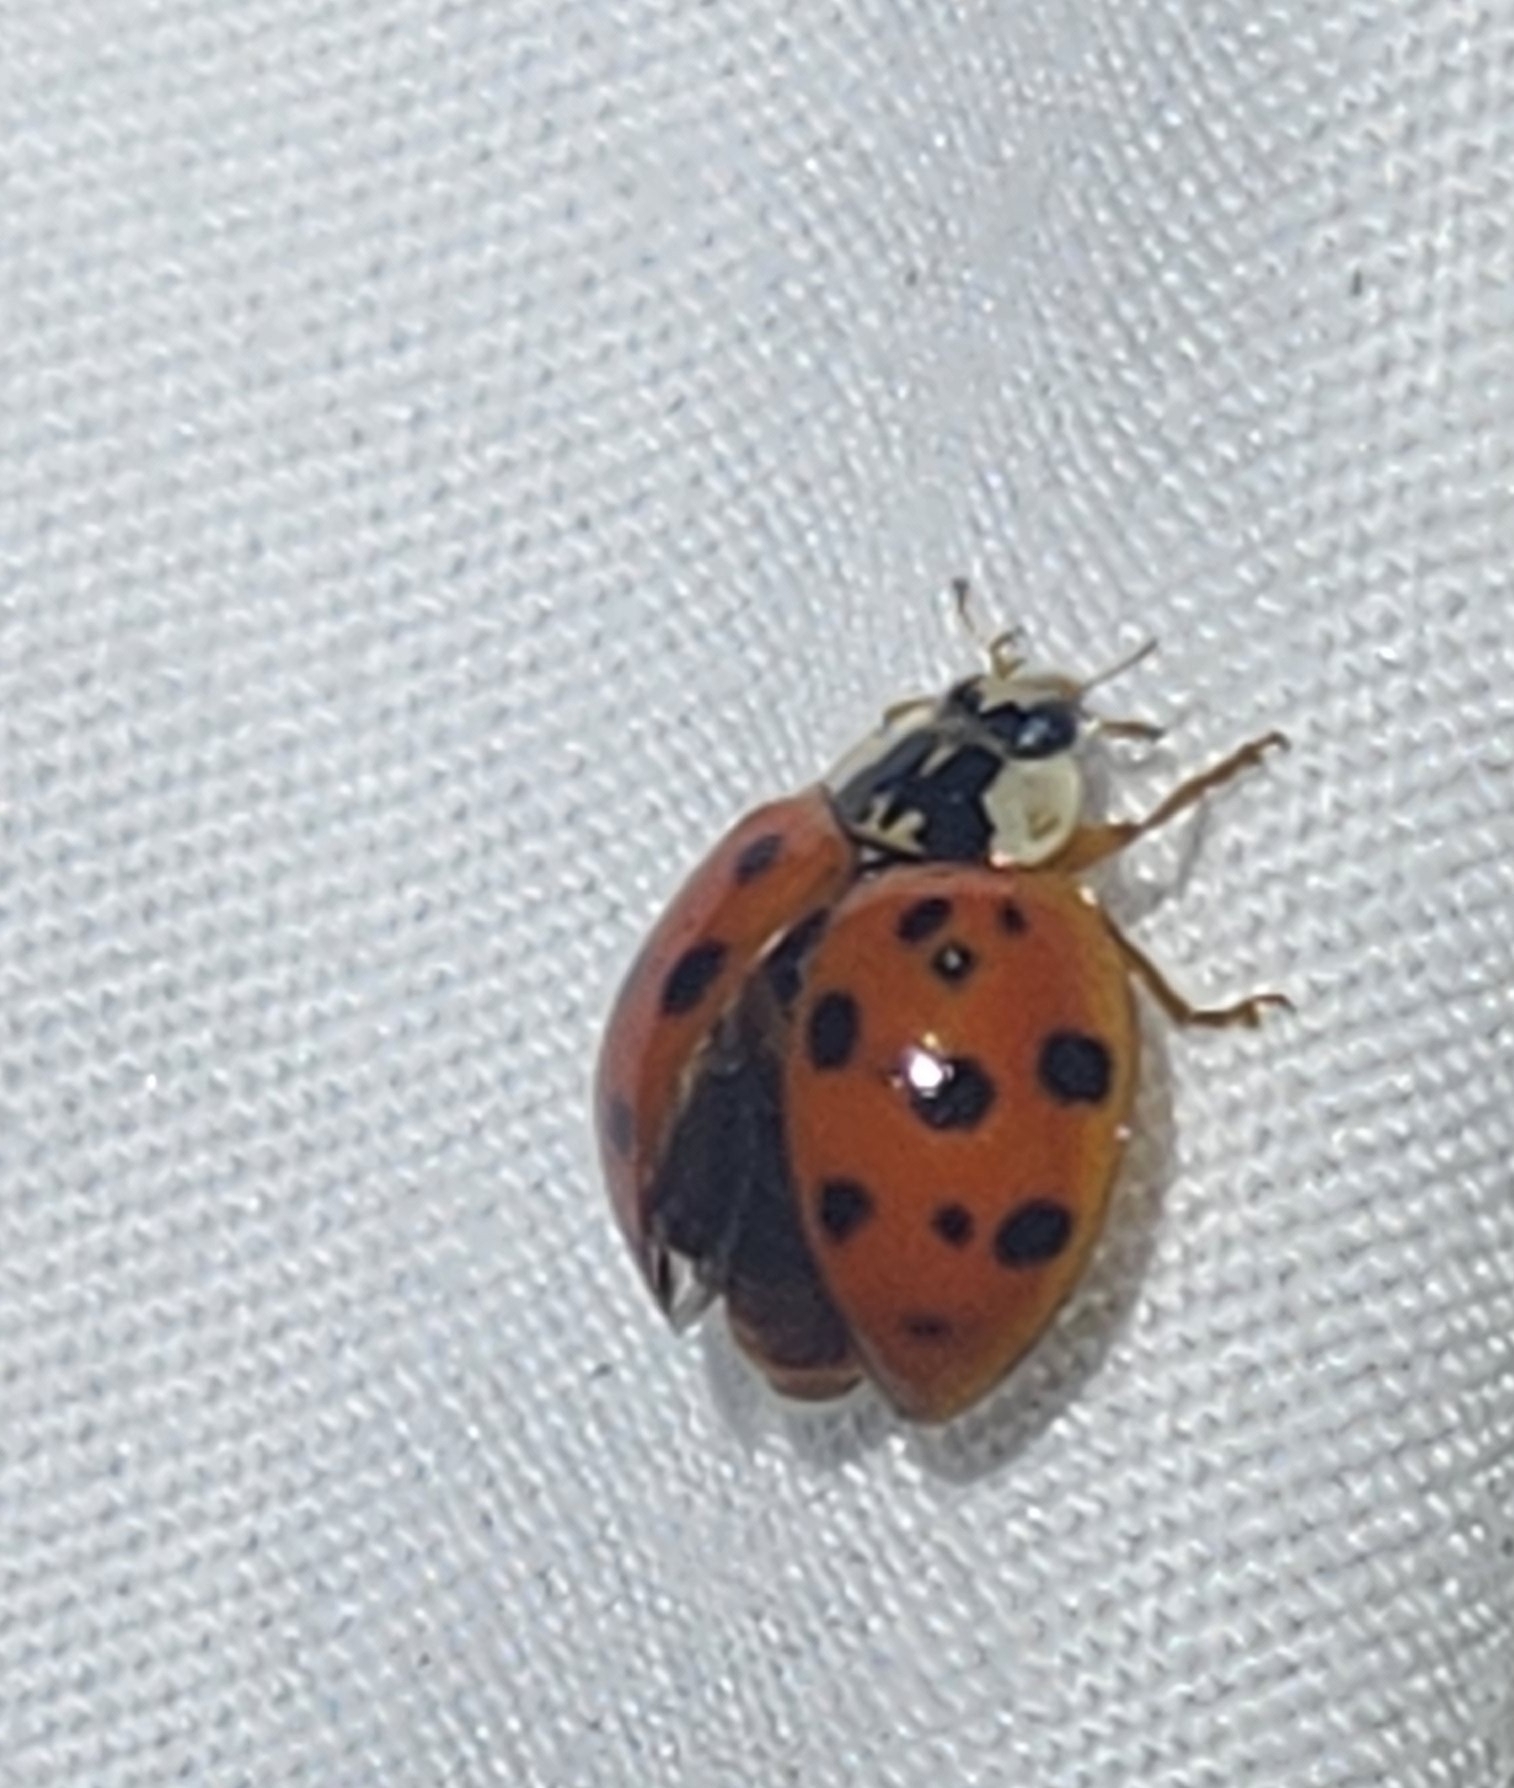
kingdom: Animalia
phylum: Arthropoda
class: Insecta
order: Coleoptera
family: Coccinellidae
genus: Harmonia
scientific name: Harmonia axyridis
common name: Harlequin ladybird
